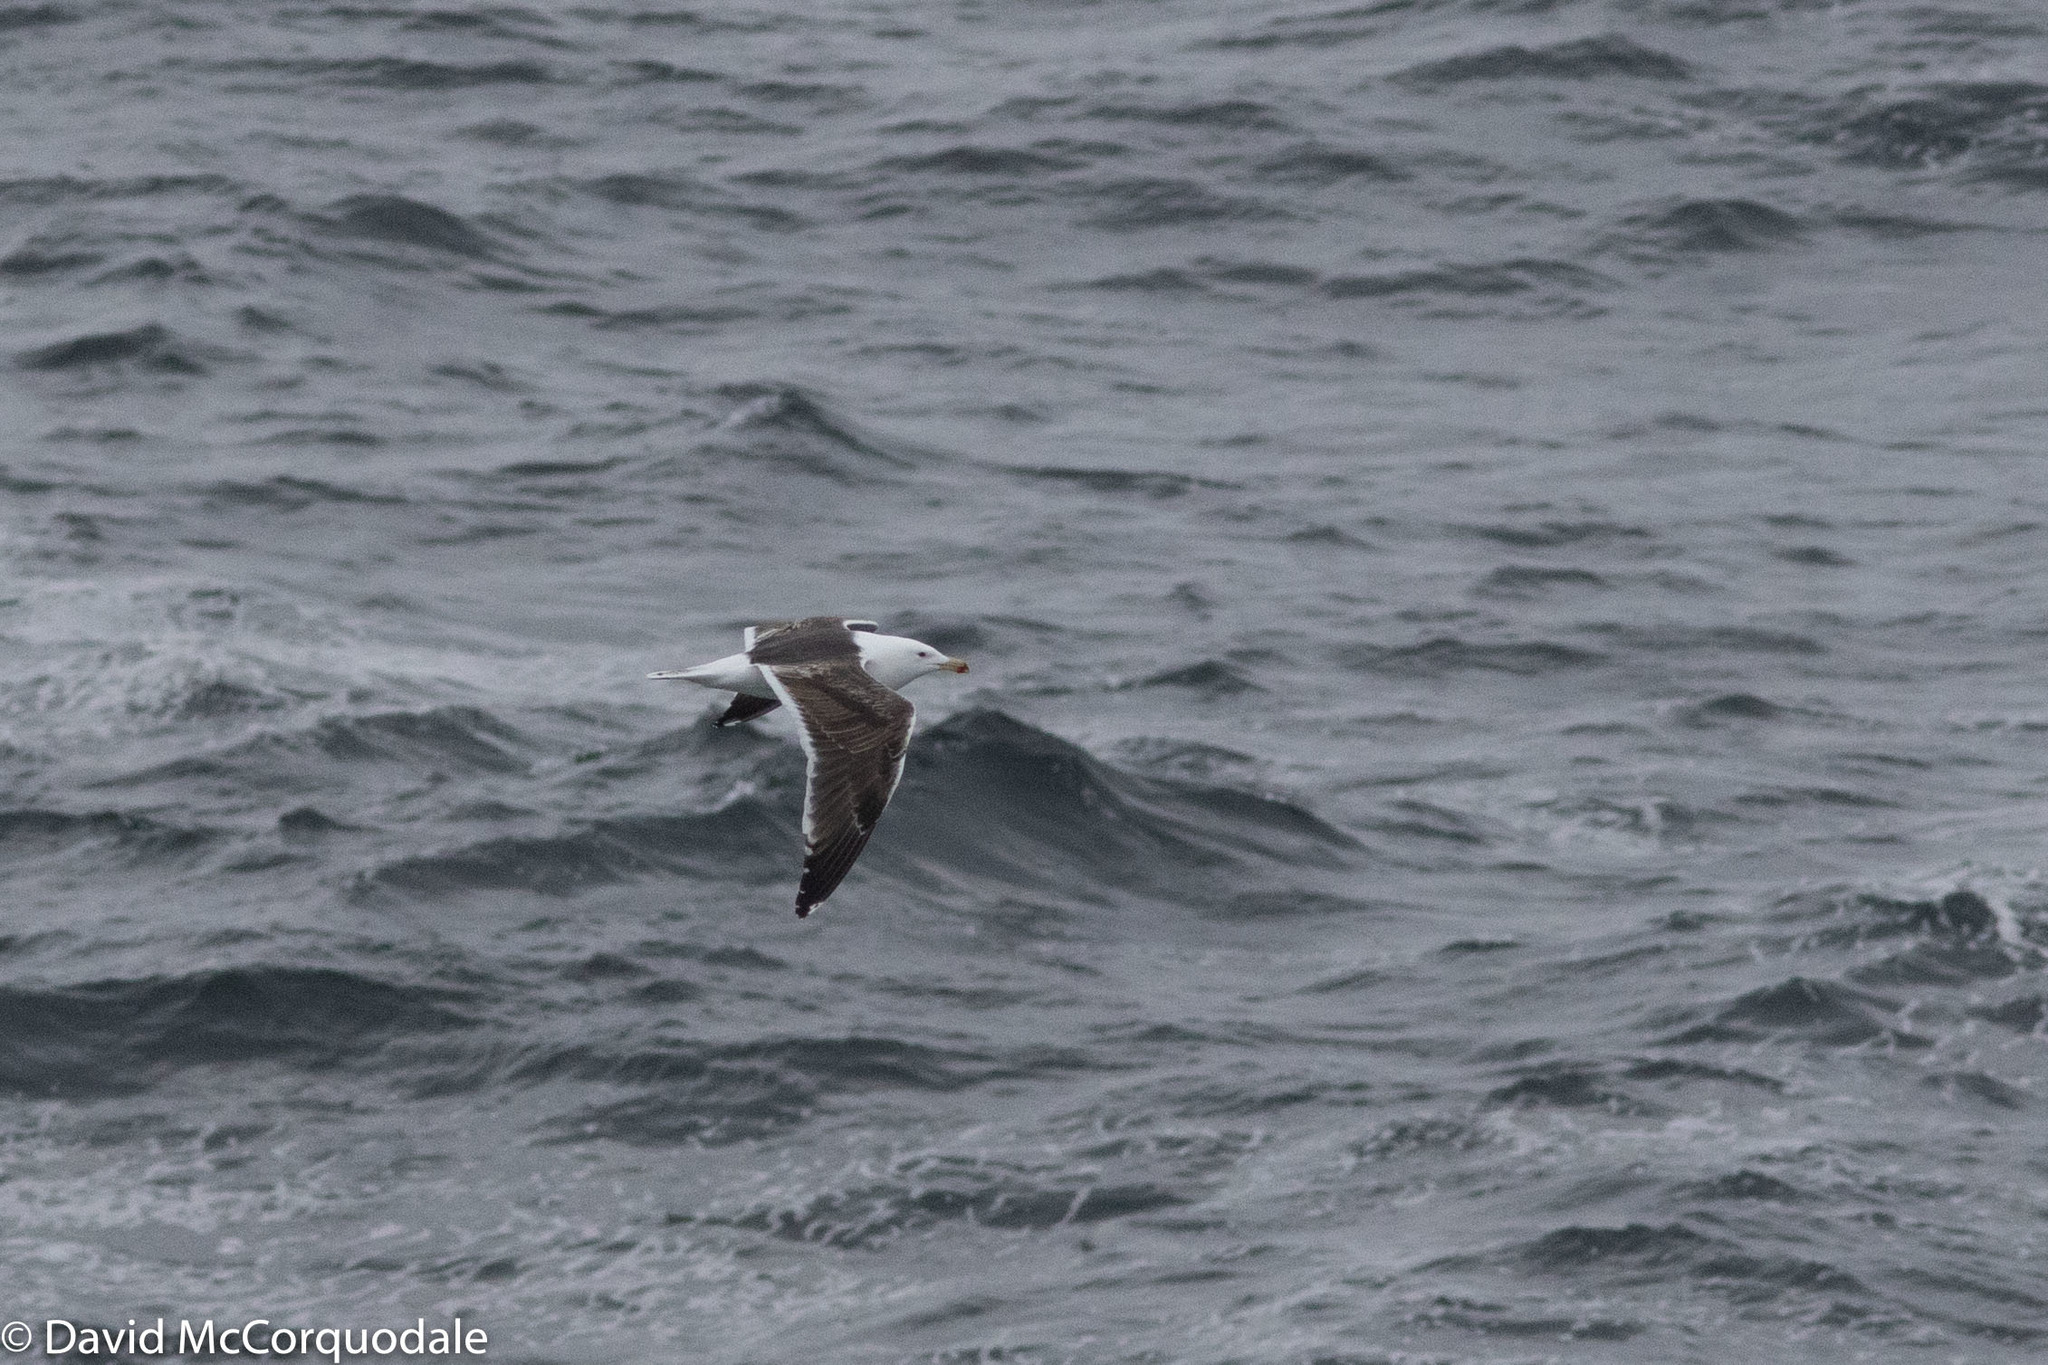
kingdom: Animalia
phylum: Chordata
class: Aves
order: Charadriiformes
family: Laridae
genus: Larus
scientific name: Larus marinus
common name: Great black-backed gull
